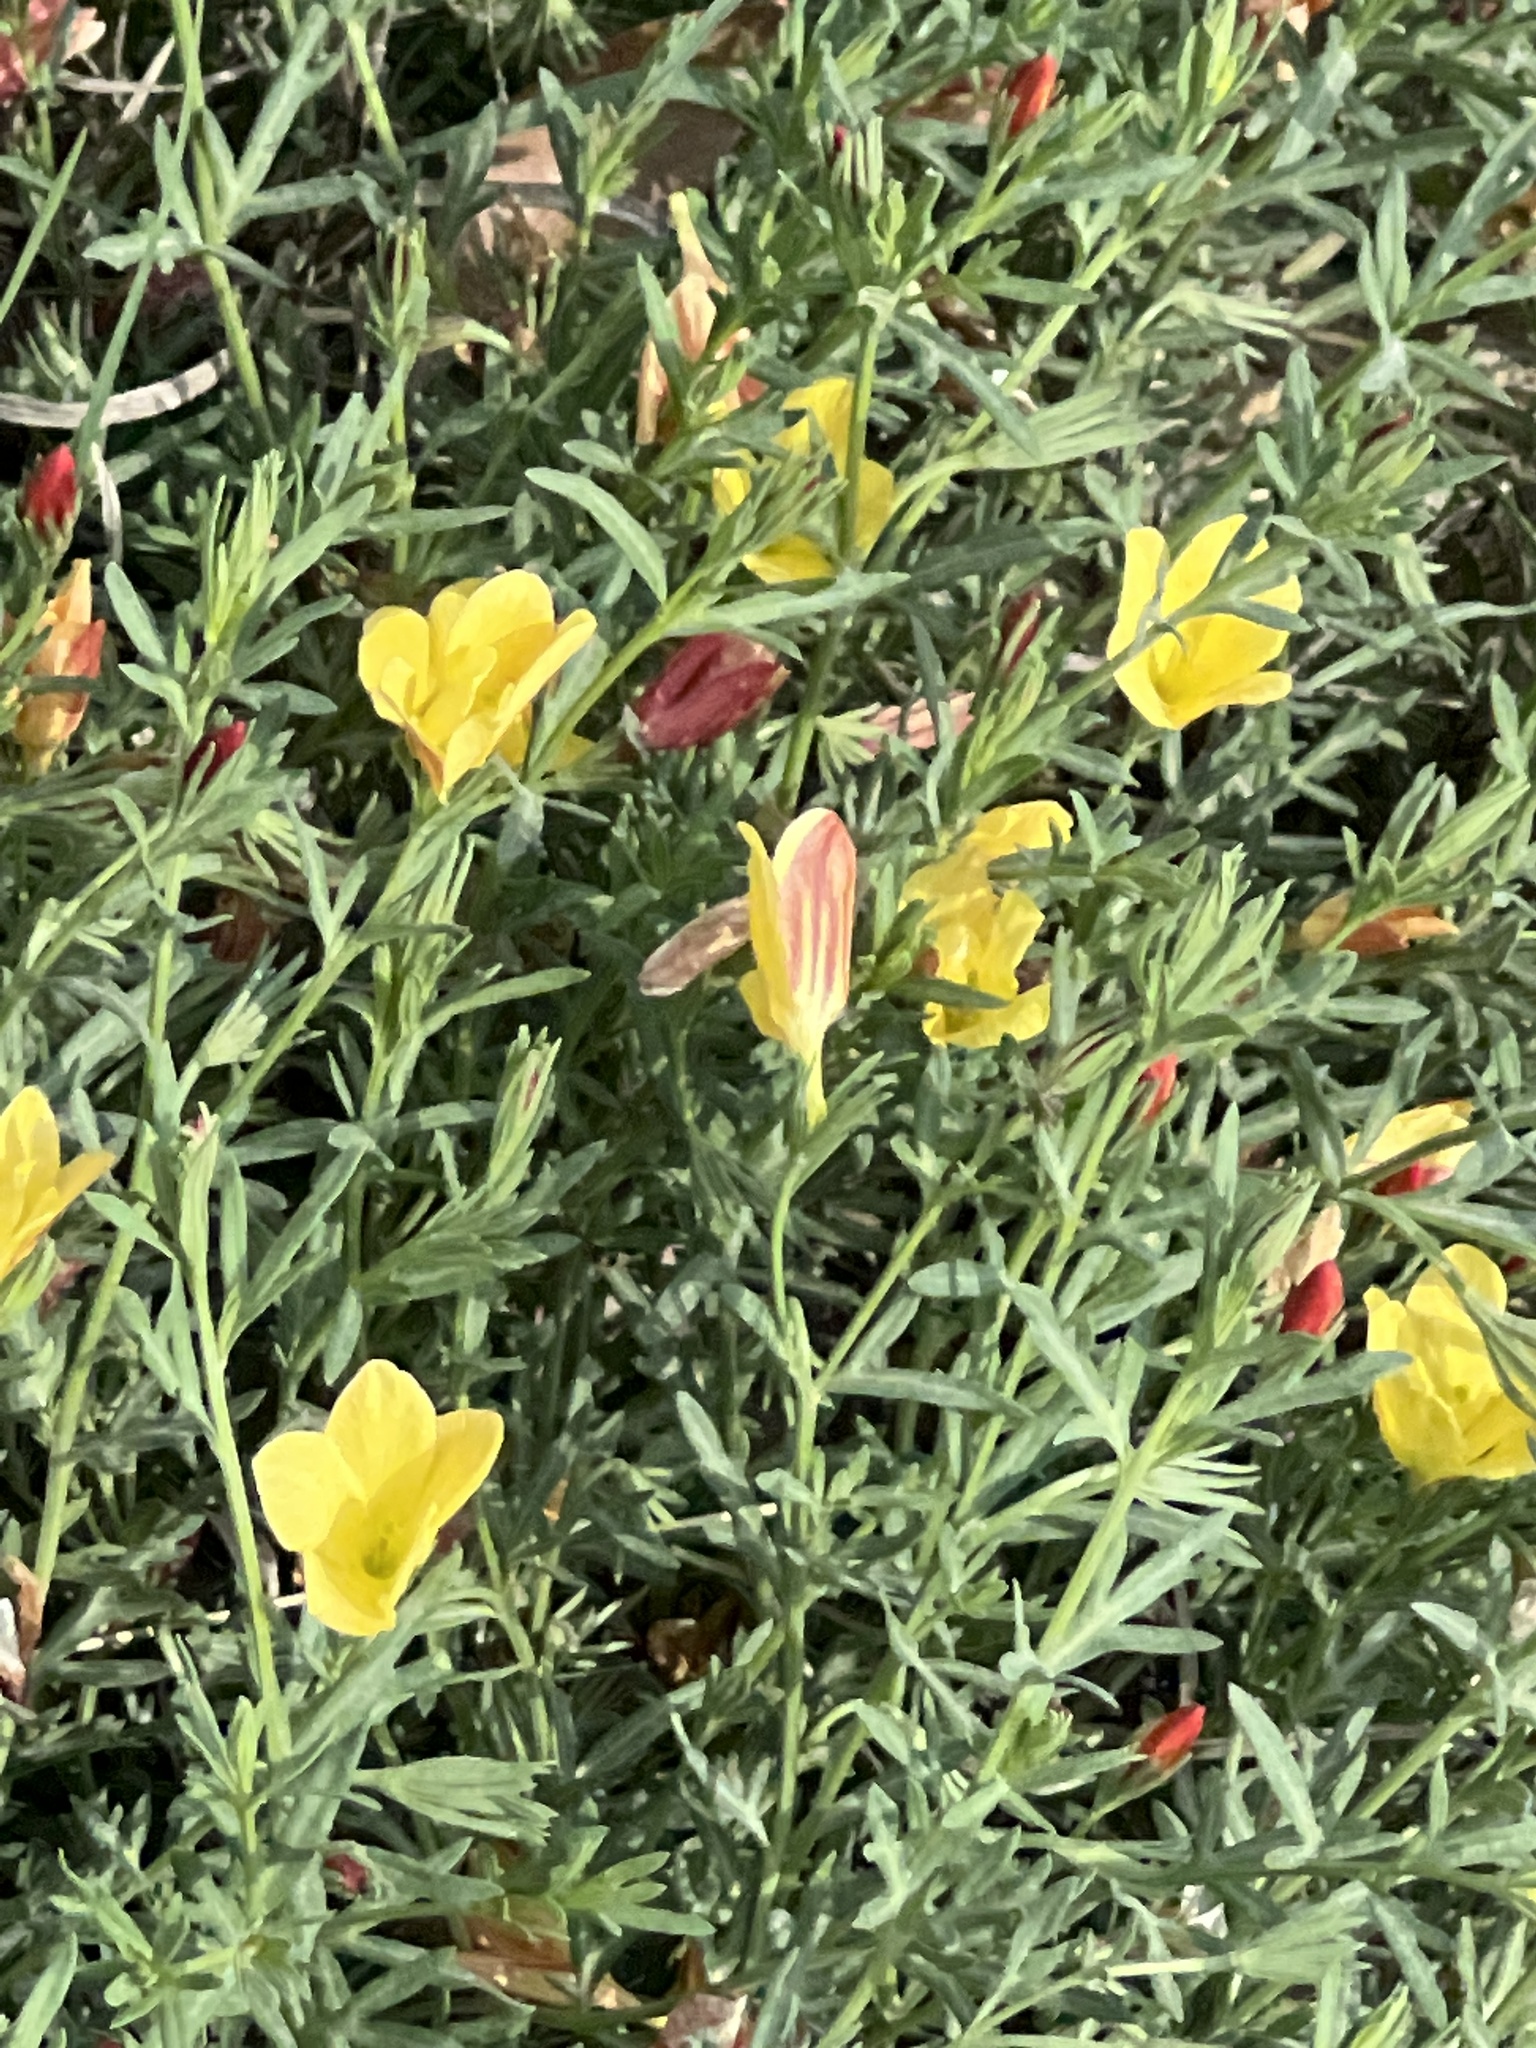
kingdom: Plantae
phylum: Tracheophyta
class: Magnoliopsida
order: Lamiales
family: Oleaceae
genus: Menodora
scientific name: Menodora heterophylla
